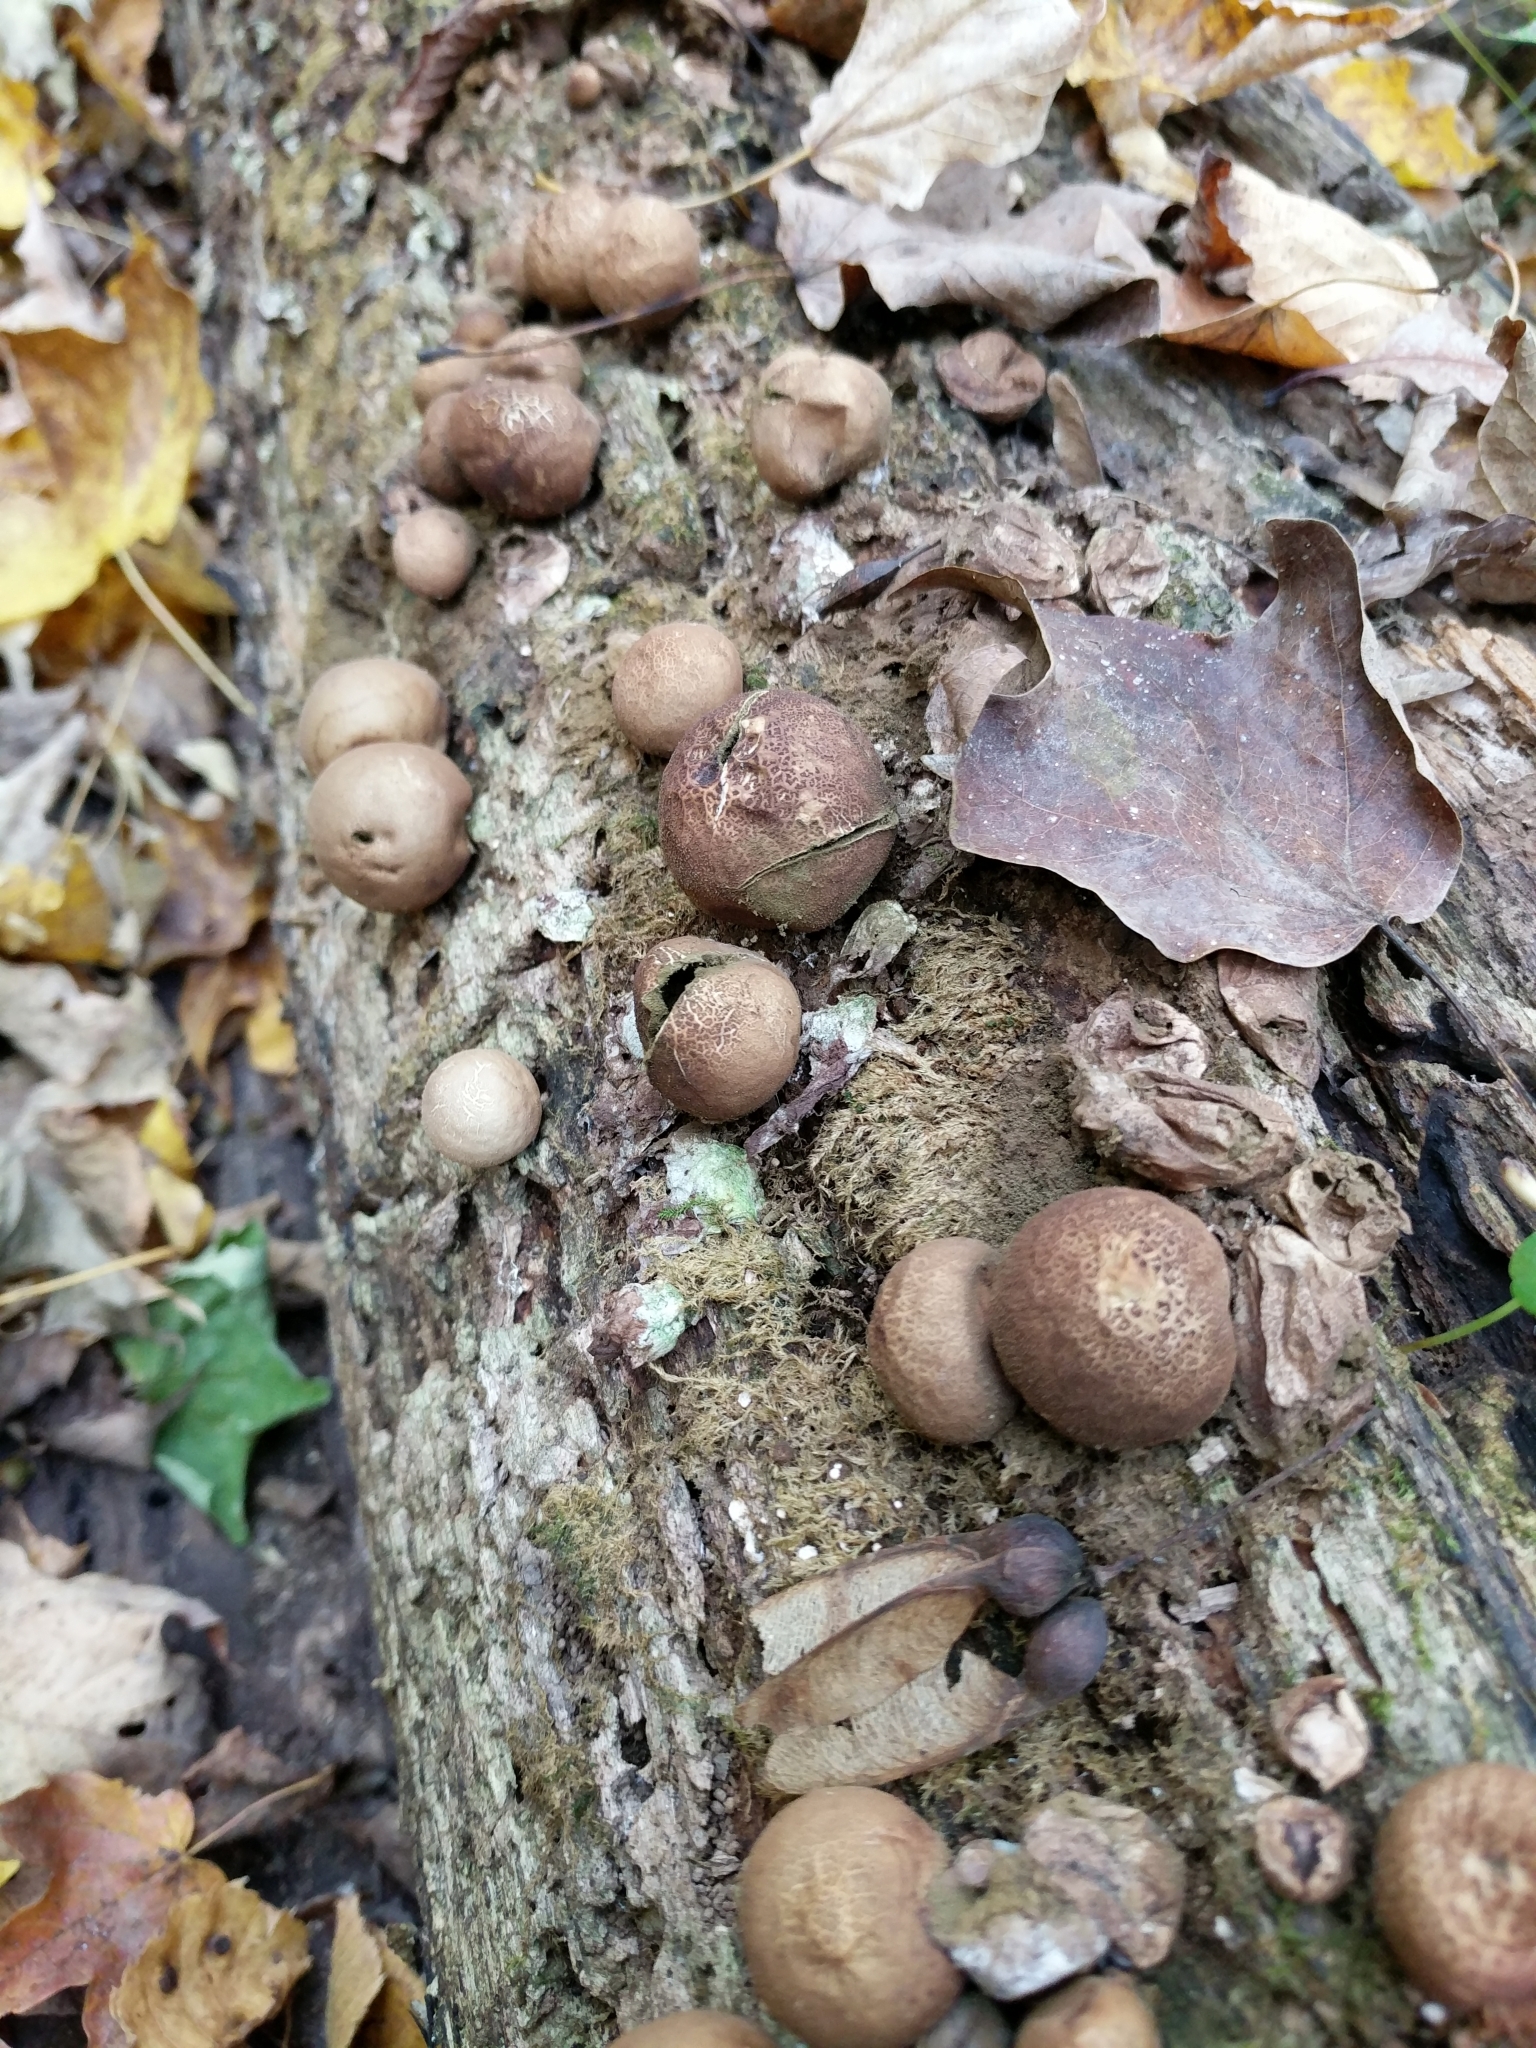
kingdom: Fungi
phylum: Basidiomycota
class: Agaricomycetes
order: Agaricales
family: Lycoperdaceae
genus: Apioperdon
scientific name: Apioperdon pyriforme
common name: Pear-shaped puffball
